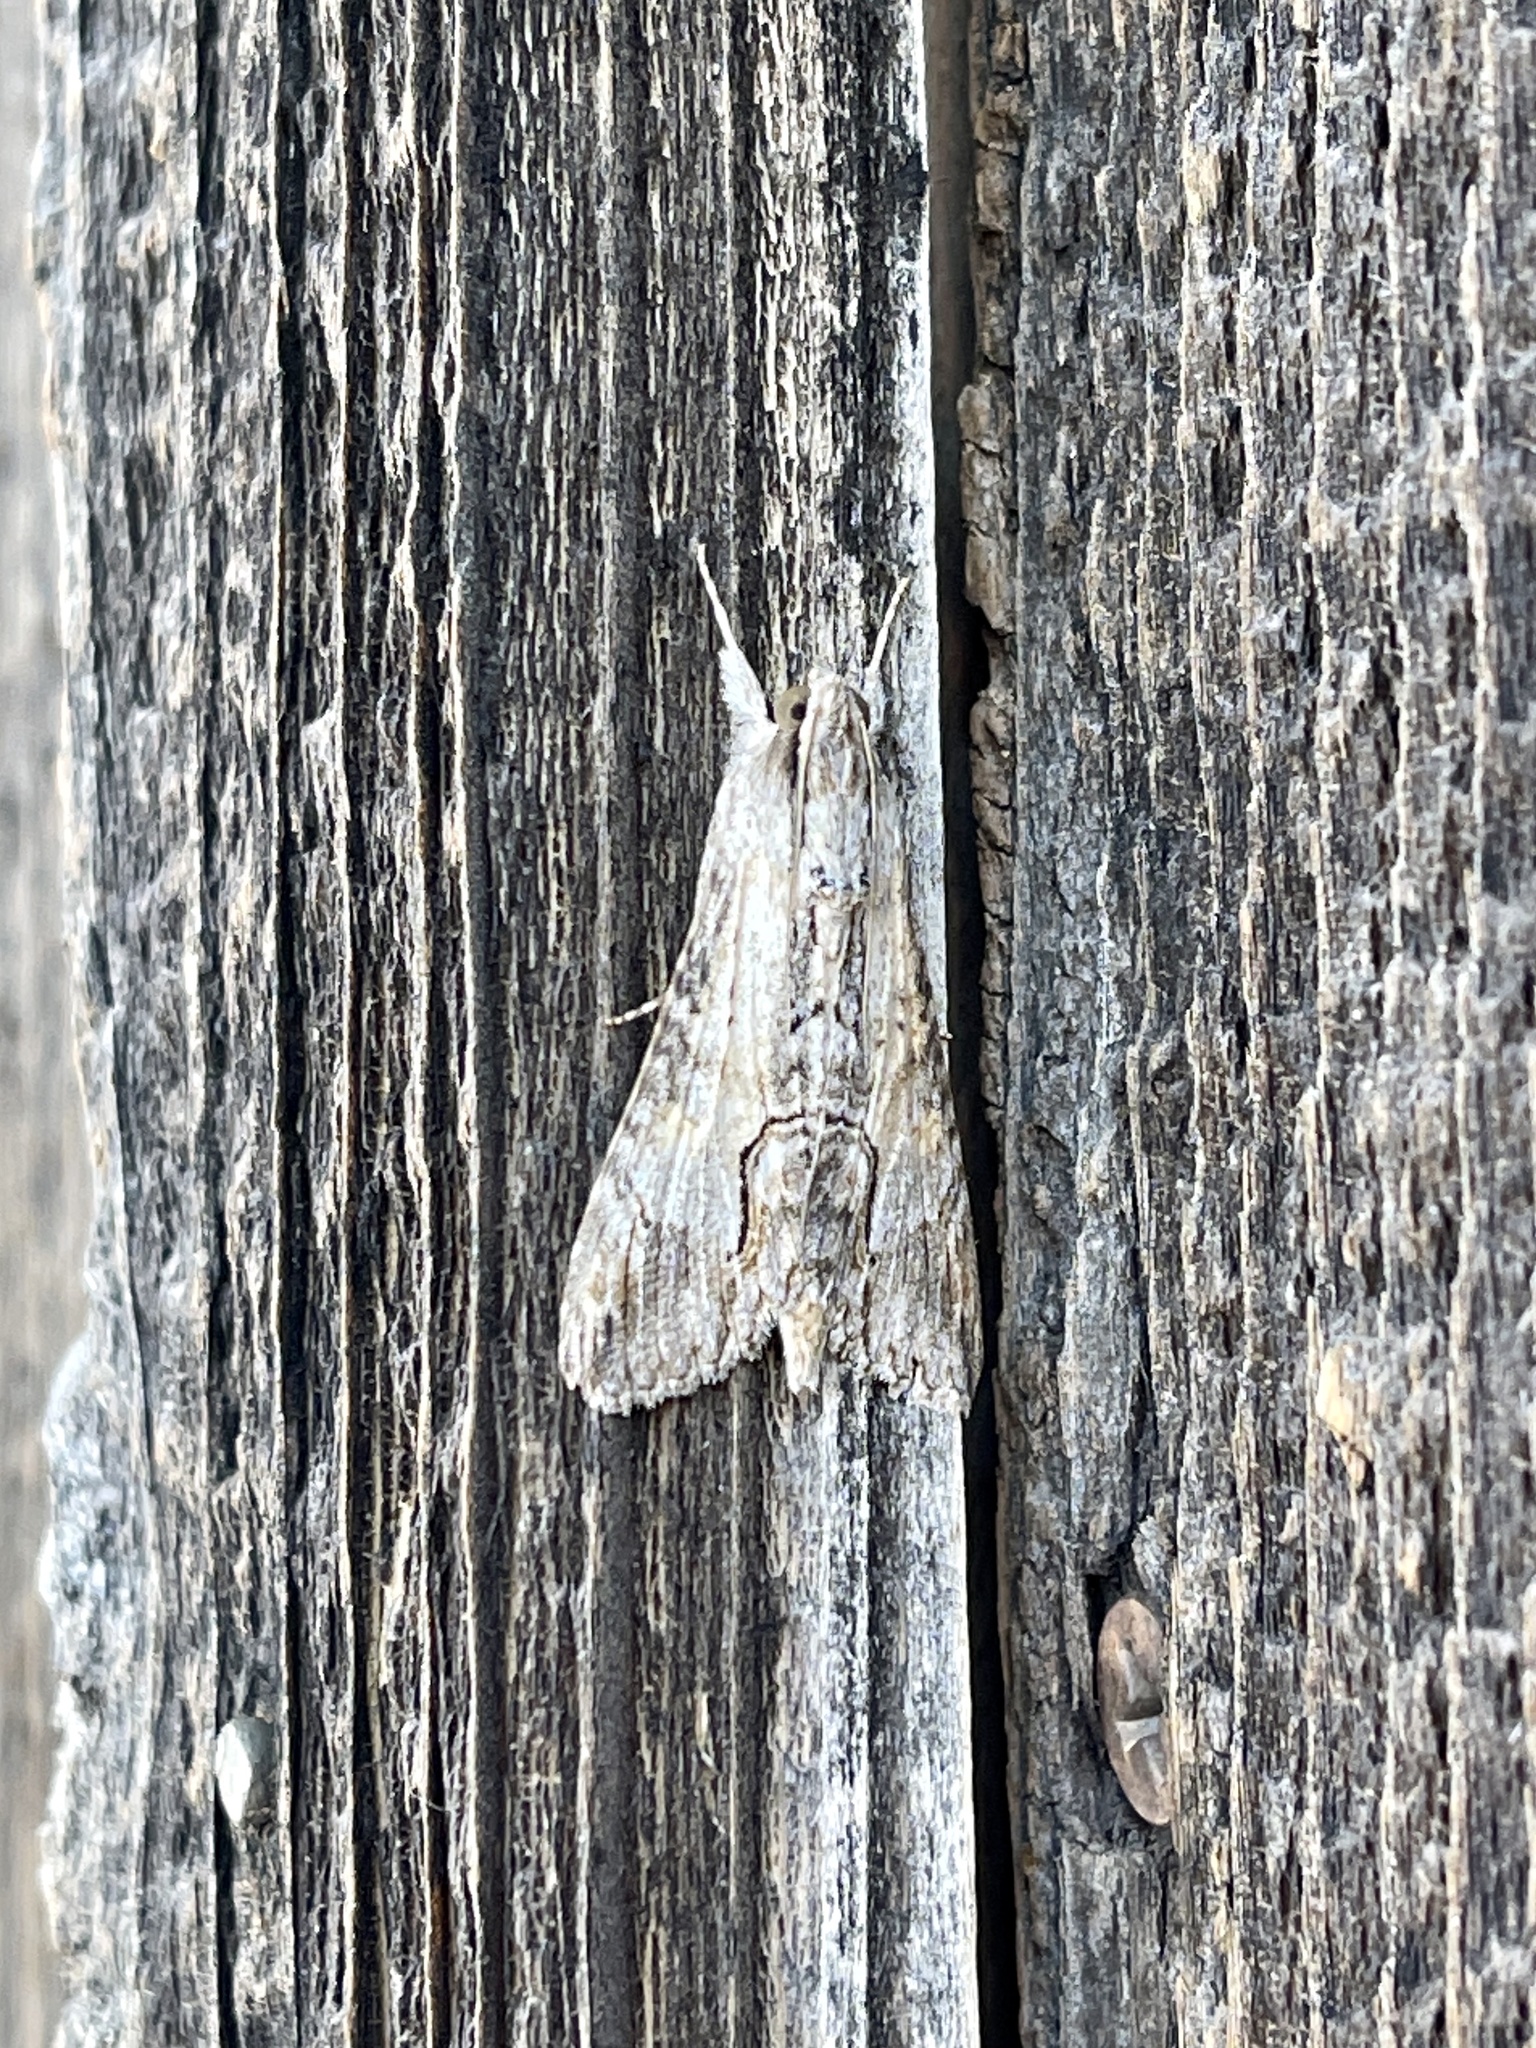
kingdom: Animalia
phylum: Arthropoda
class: Insecta
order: Lepidoptera
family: Erebidae
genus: Melipotis
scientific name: Melipotis acontioides
